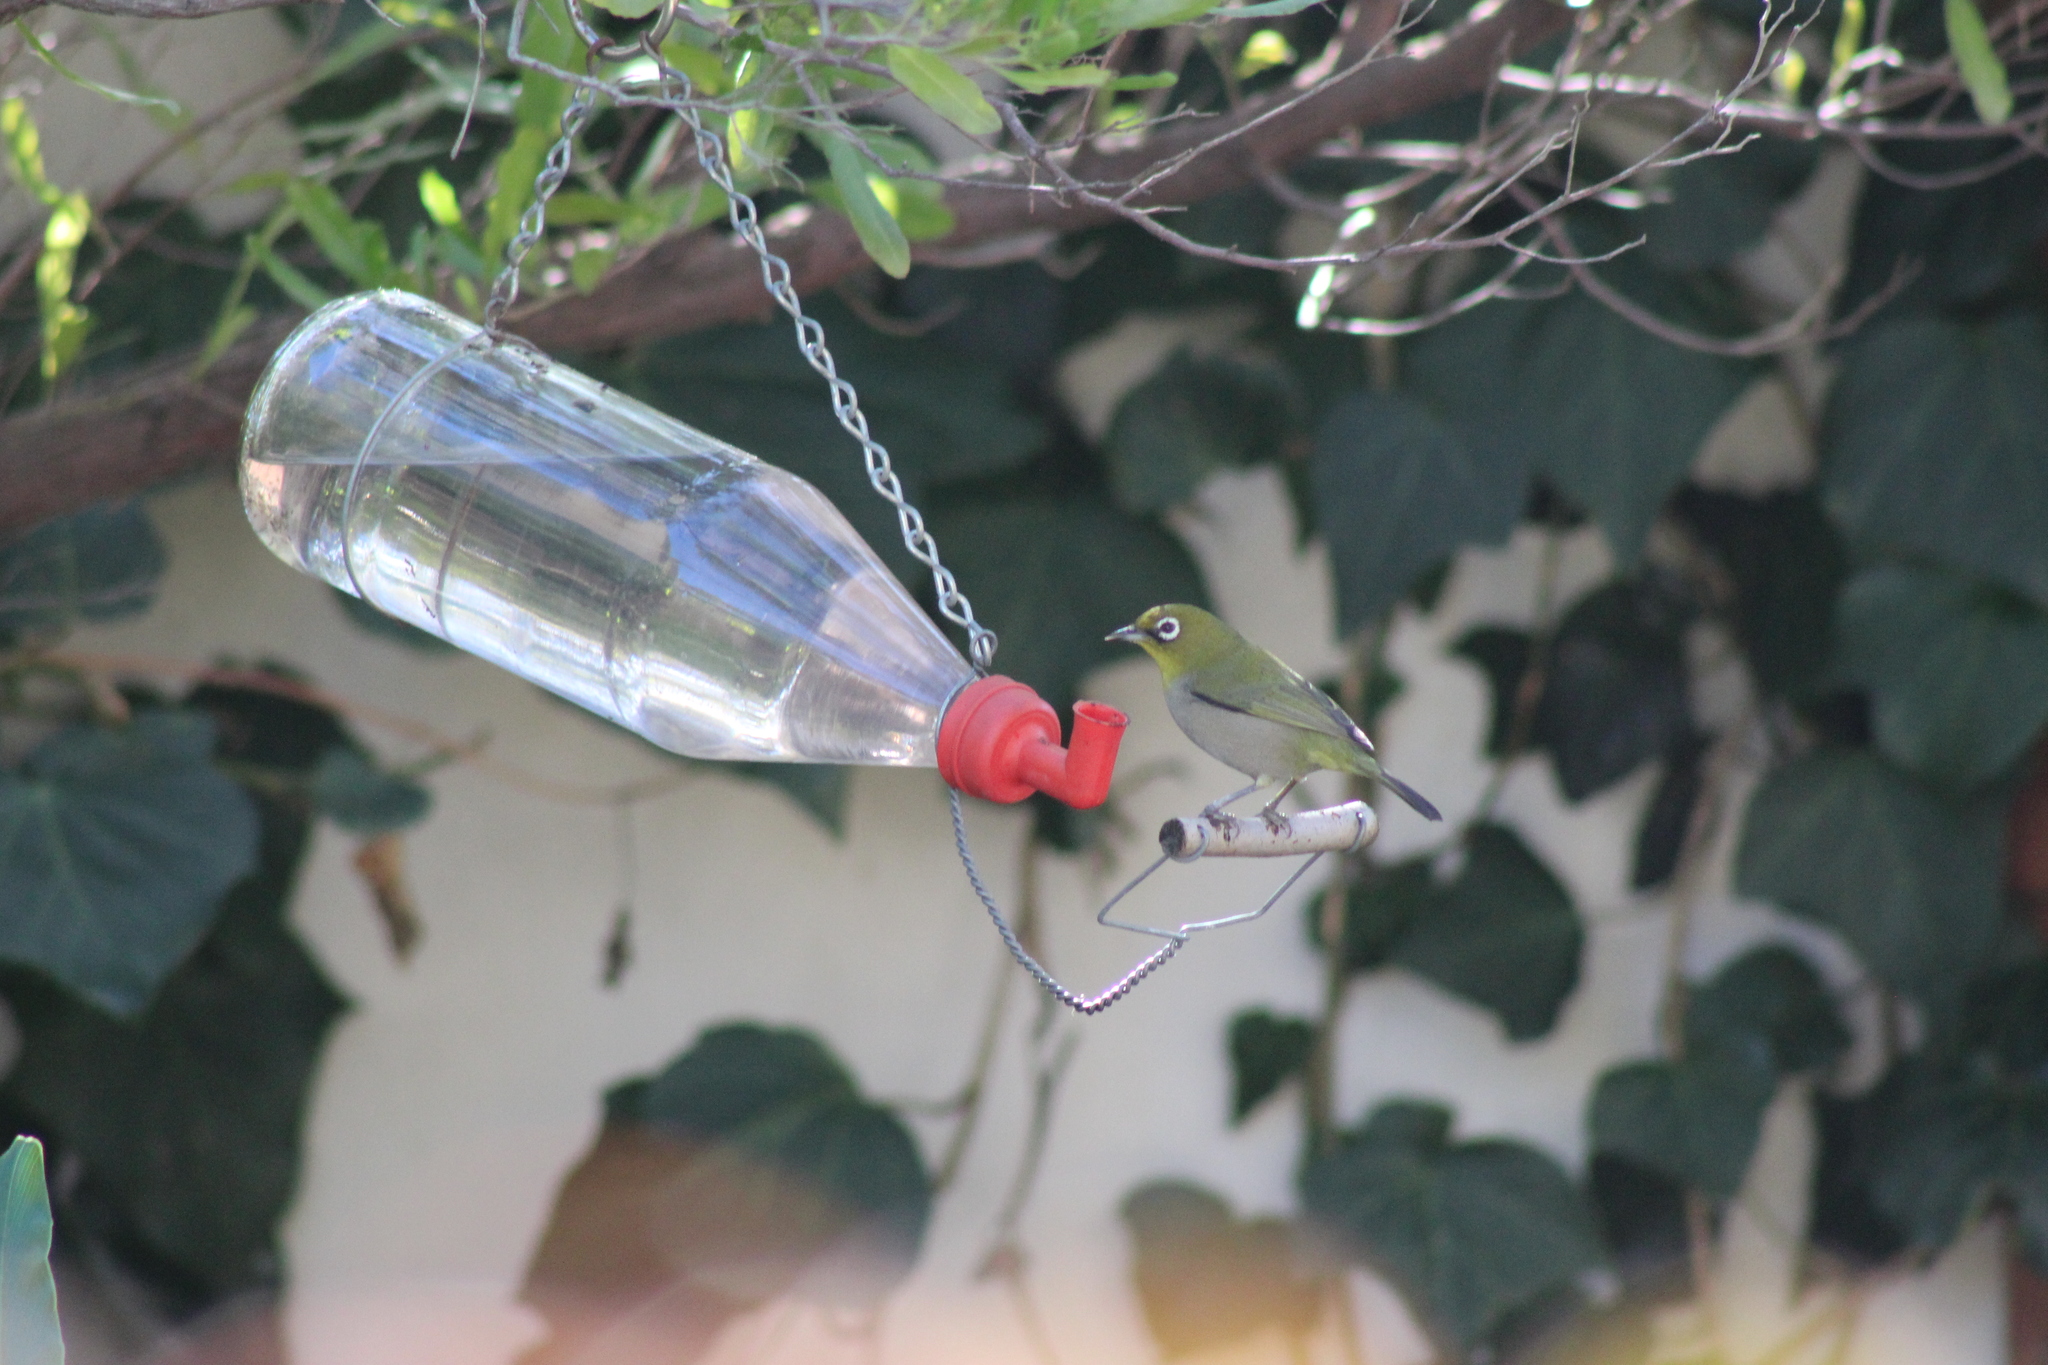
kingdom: Animalia
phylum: Chordata
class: Aves
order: Passeriformes
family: Zosteropidae
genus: Zosterops
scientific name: Zosterops virens
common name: Cape white-eye
